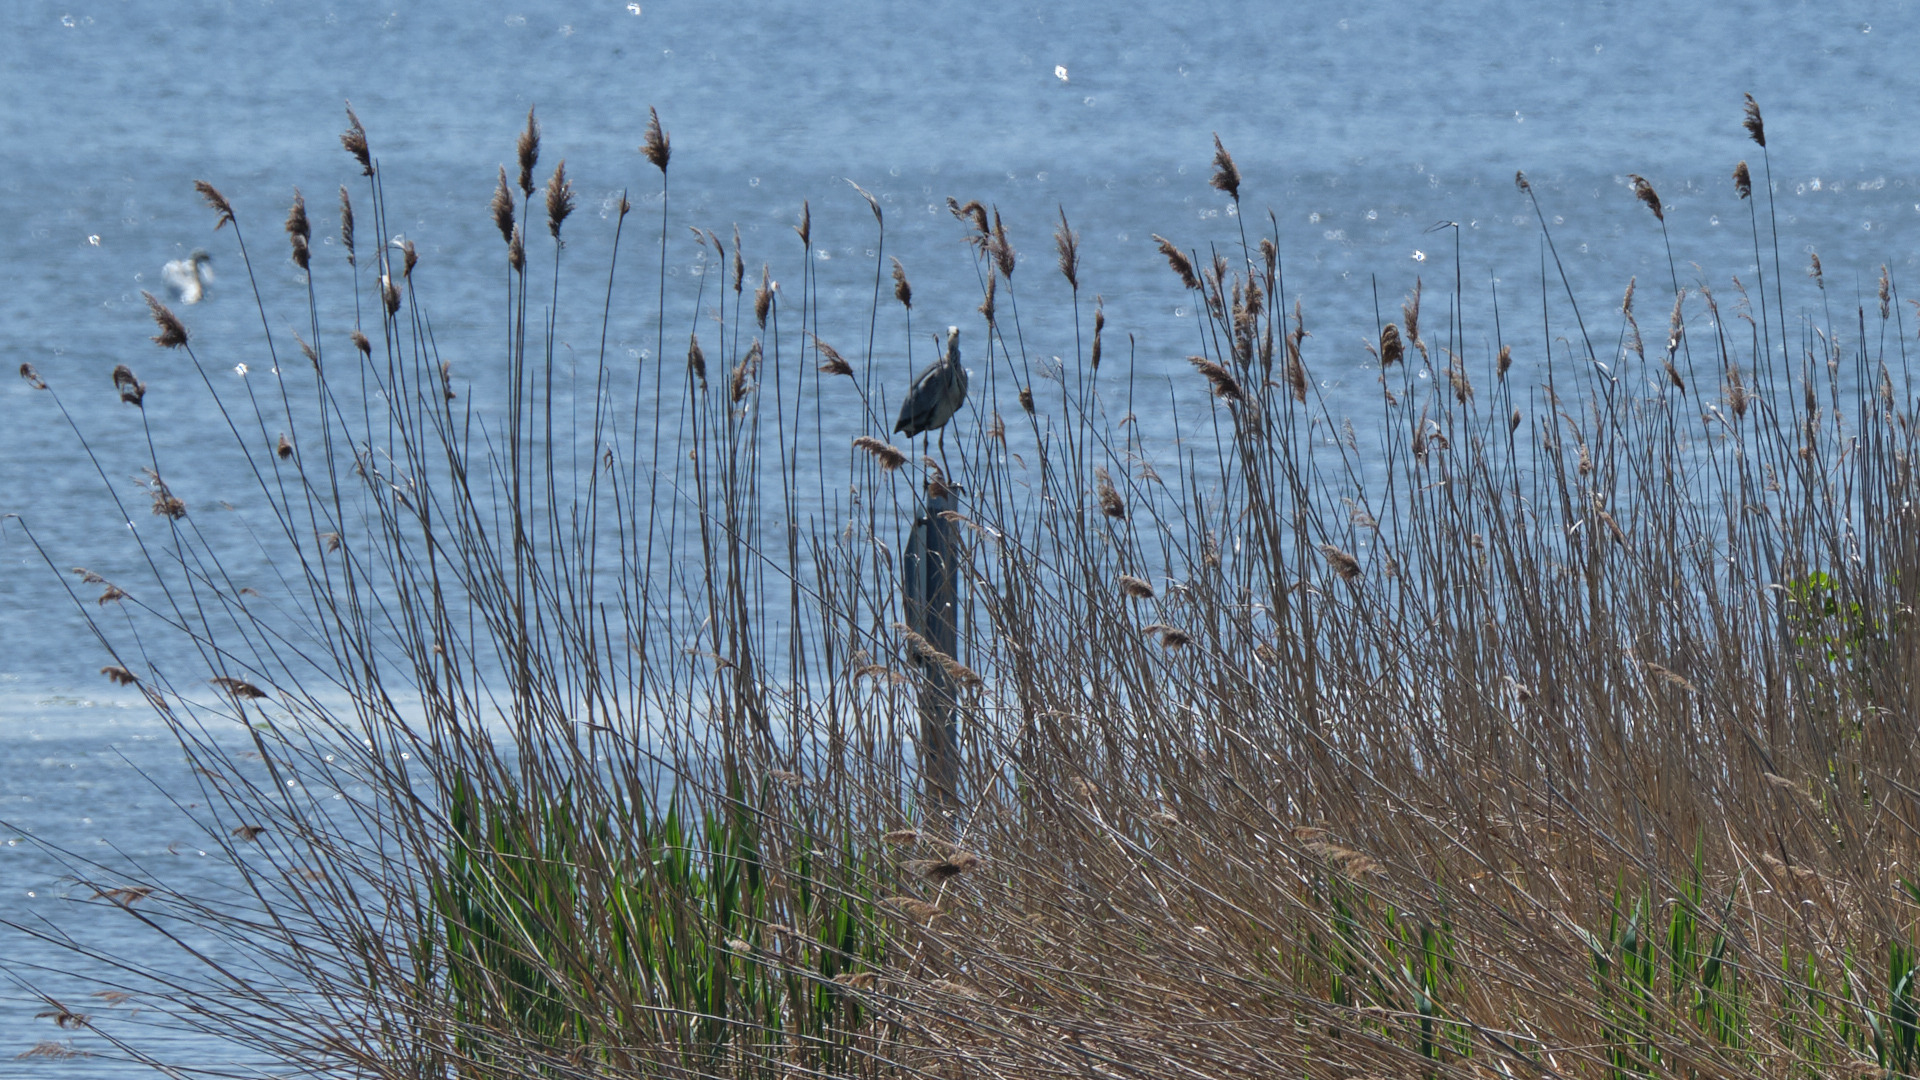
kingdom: Animalia
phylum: Chordata
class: Aves
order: Pelecaniformes
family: Ardeidae
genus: Ardea
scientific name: Ardea cinerea
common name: Grey heron
